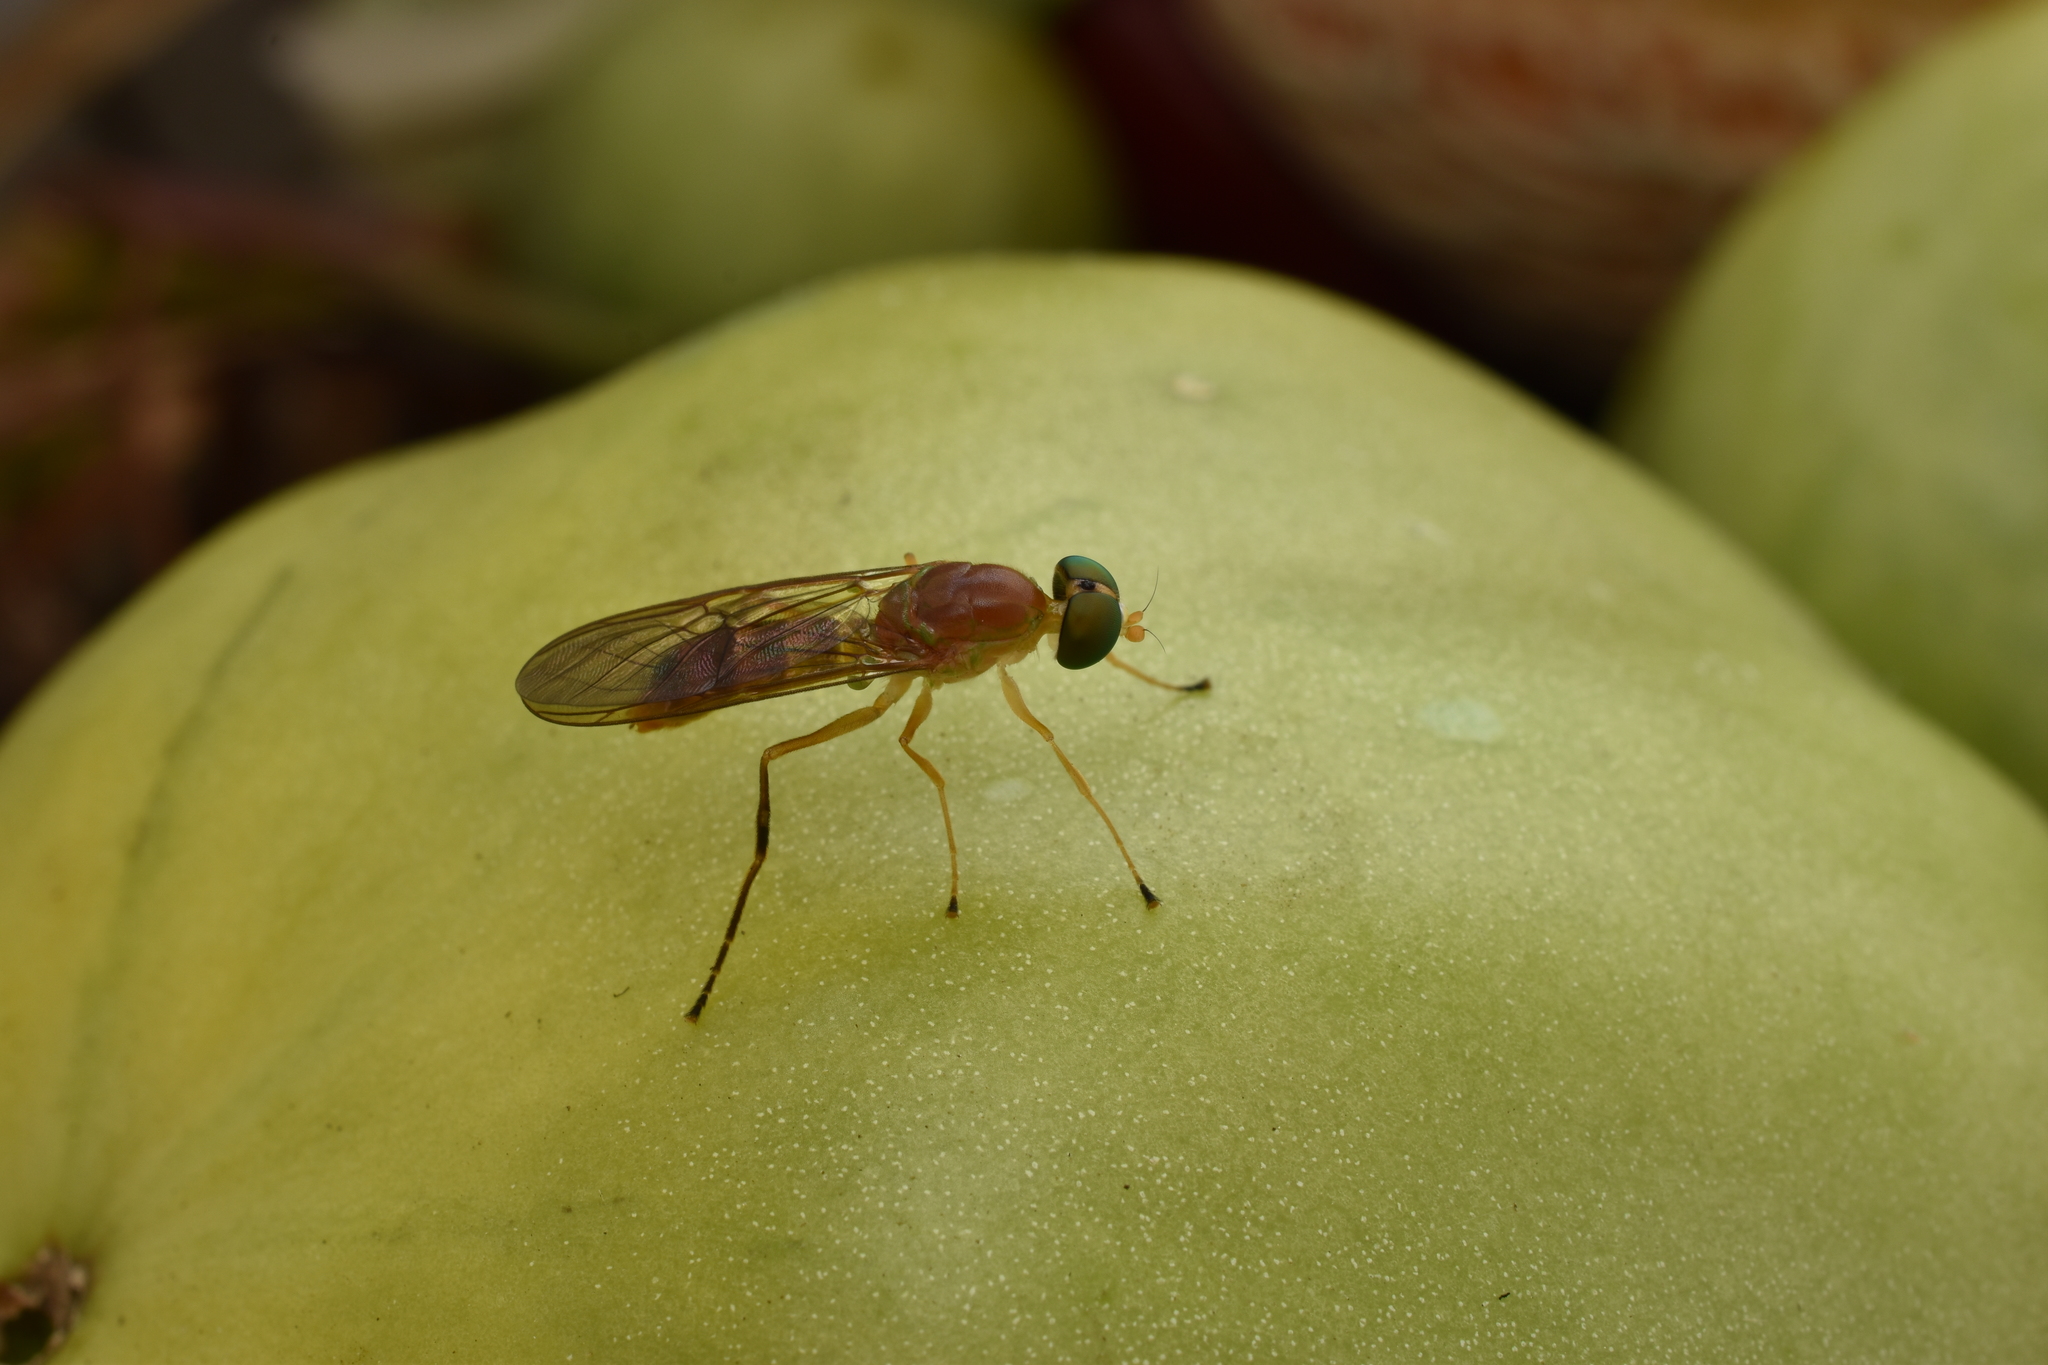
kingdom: Animalia
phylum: Arthropoda
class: Insecta
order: Diptera
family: Stratiomyidae
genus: Ptecticus
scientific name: Ptecticus trivittatus
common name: Compost fly
